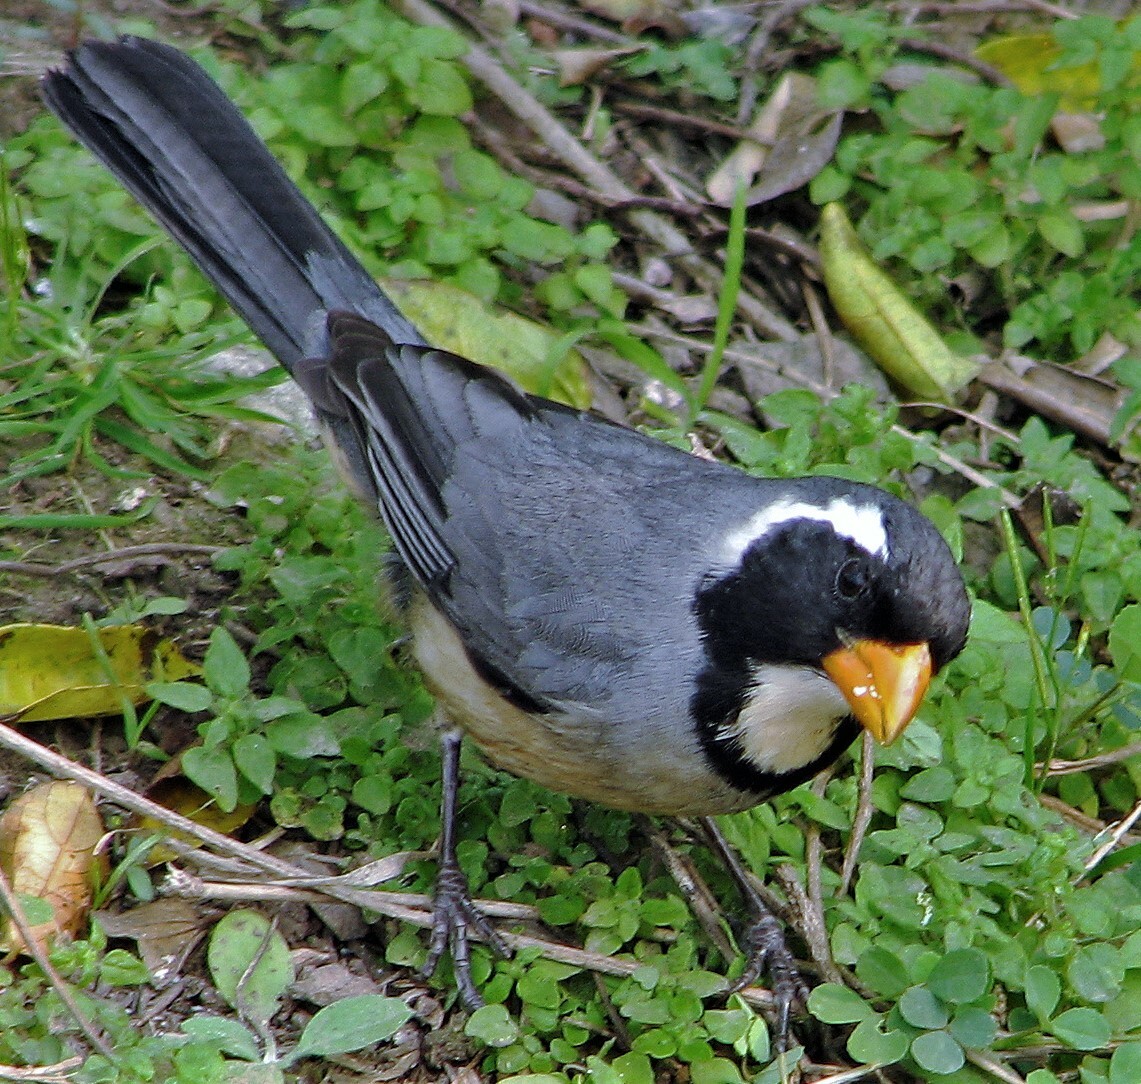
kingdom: Animalia
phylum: Chordata
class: Aves
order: Passeriformes
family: Thraupidae
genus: Saltator
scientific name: Saltator aurantiirostris
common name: Golden-billed saltator
